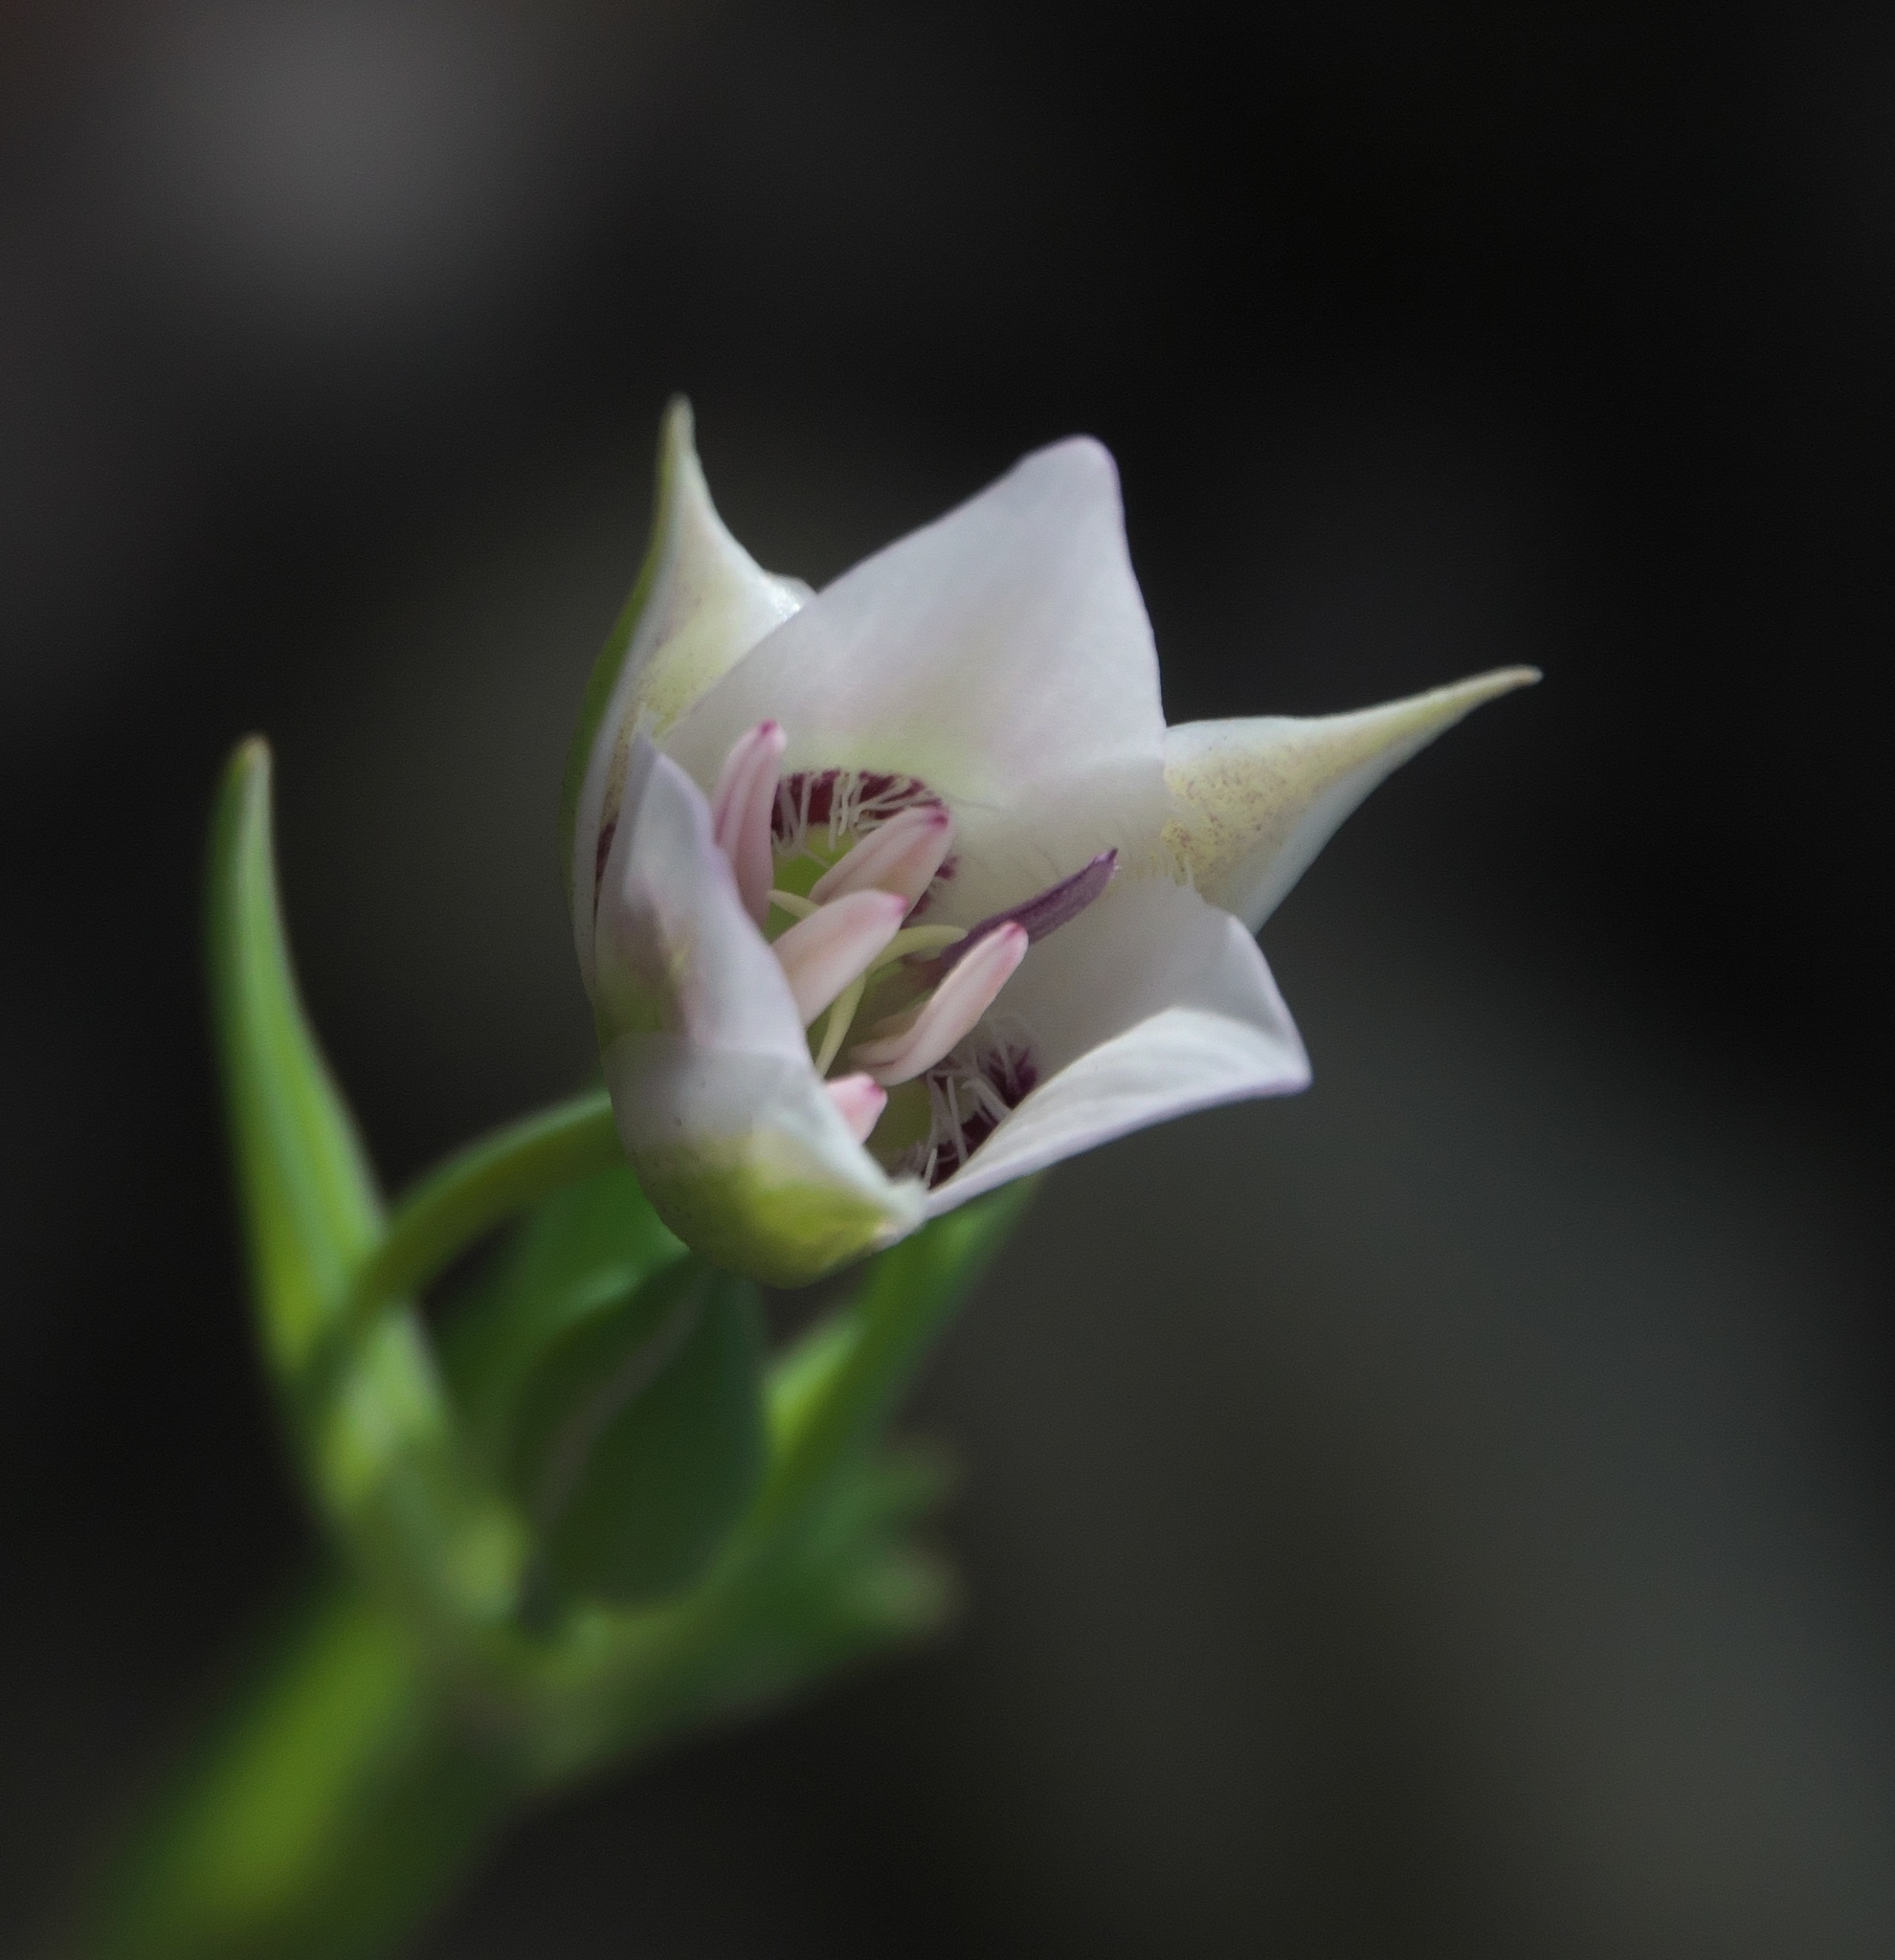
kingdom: Plantae
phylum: Tracheophyta
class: Liliopsida
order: Liliales
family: Liliaceae
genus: Calochortus
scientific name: Calochortus lyallii
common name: Lyall's mariposa lily
